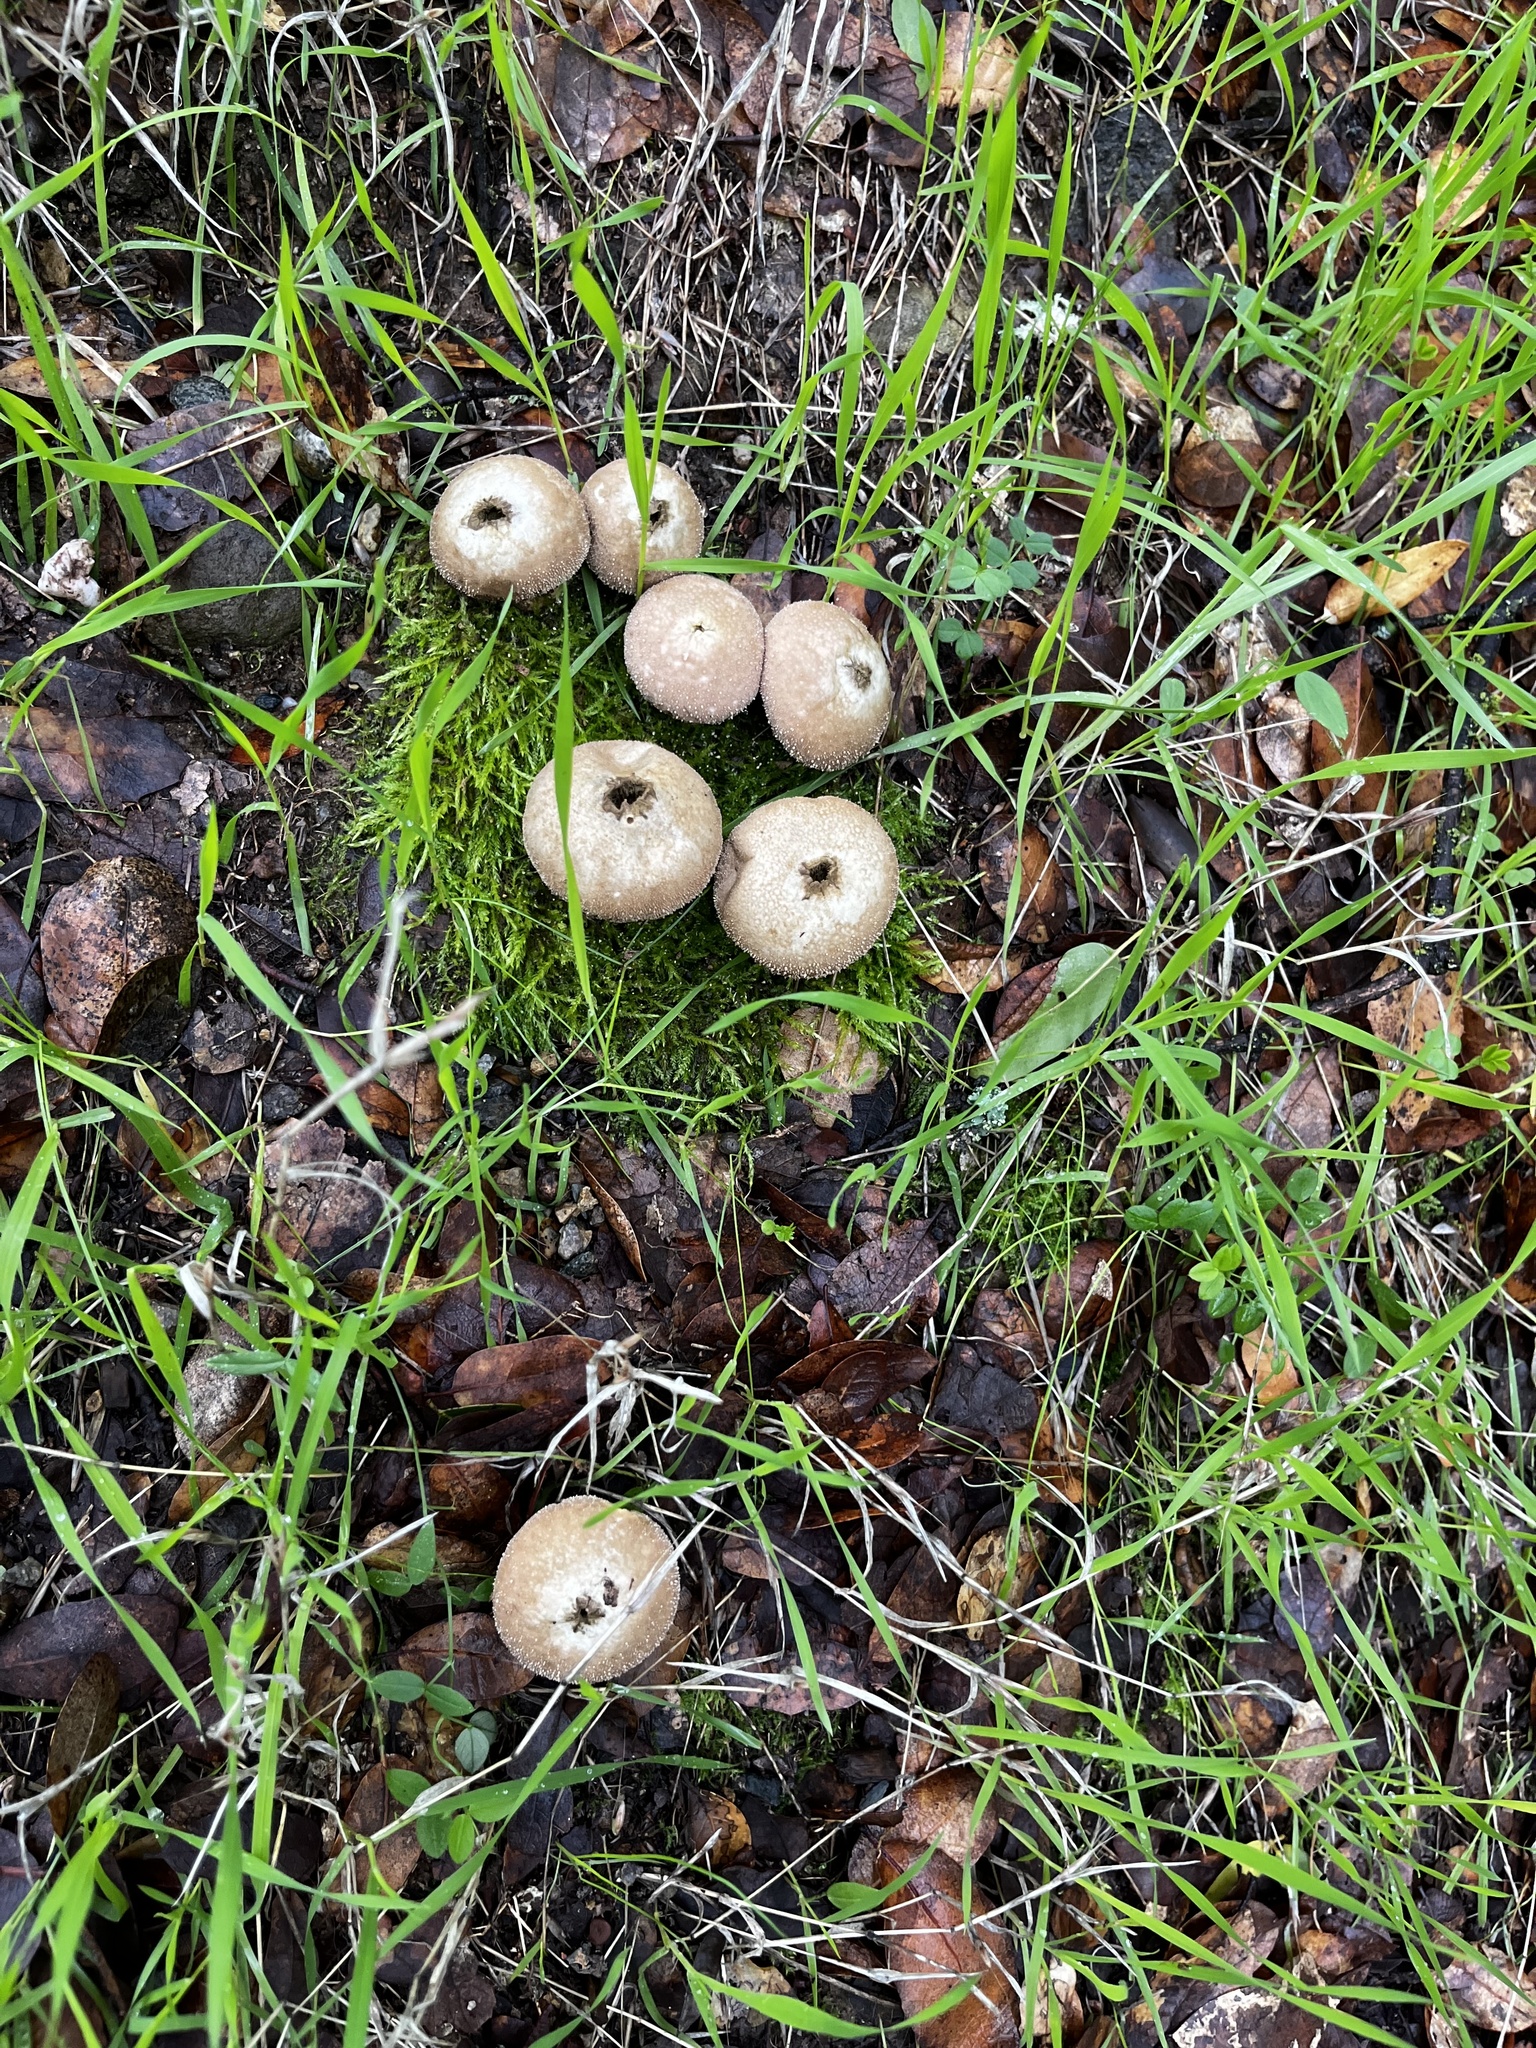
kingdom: Fungi
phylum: Basidiomycota
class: Agaricomycetes
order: Agaricales
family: Lycoperdaceae
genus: Lycoperdon
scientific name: Lycoperdon perlatum
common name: Common puffball
